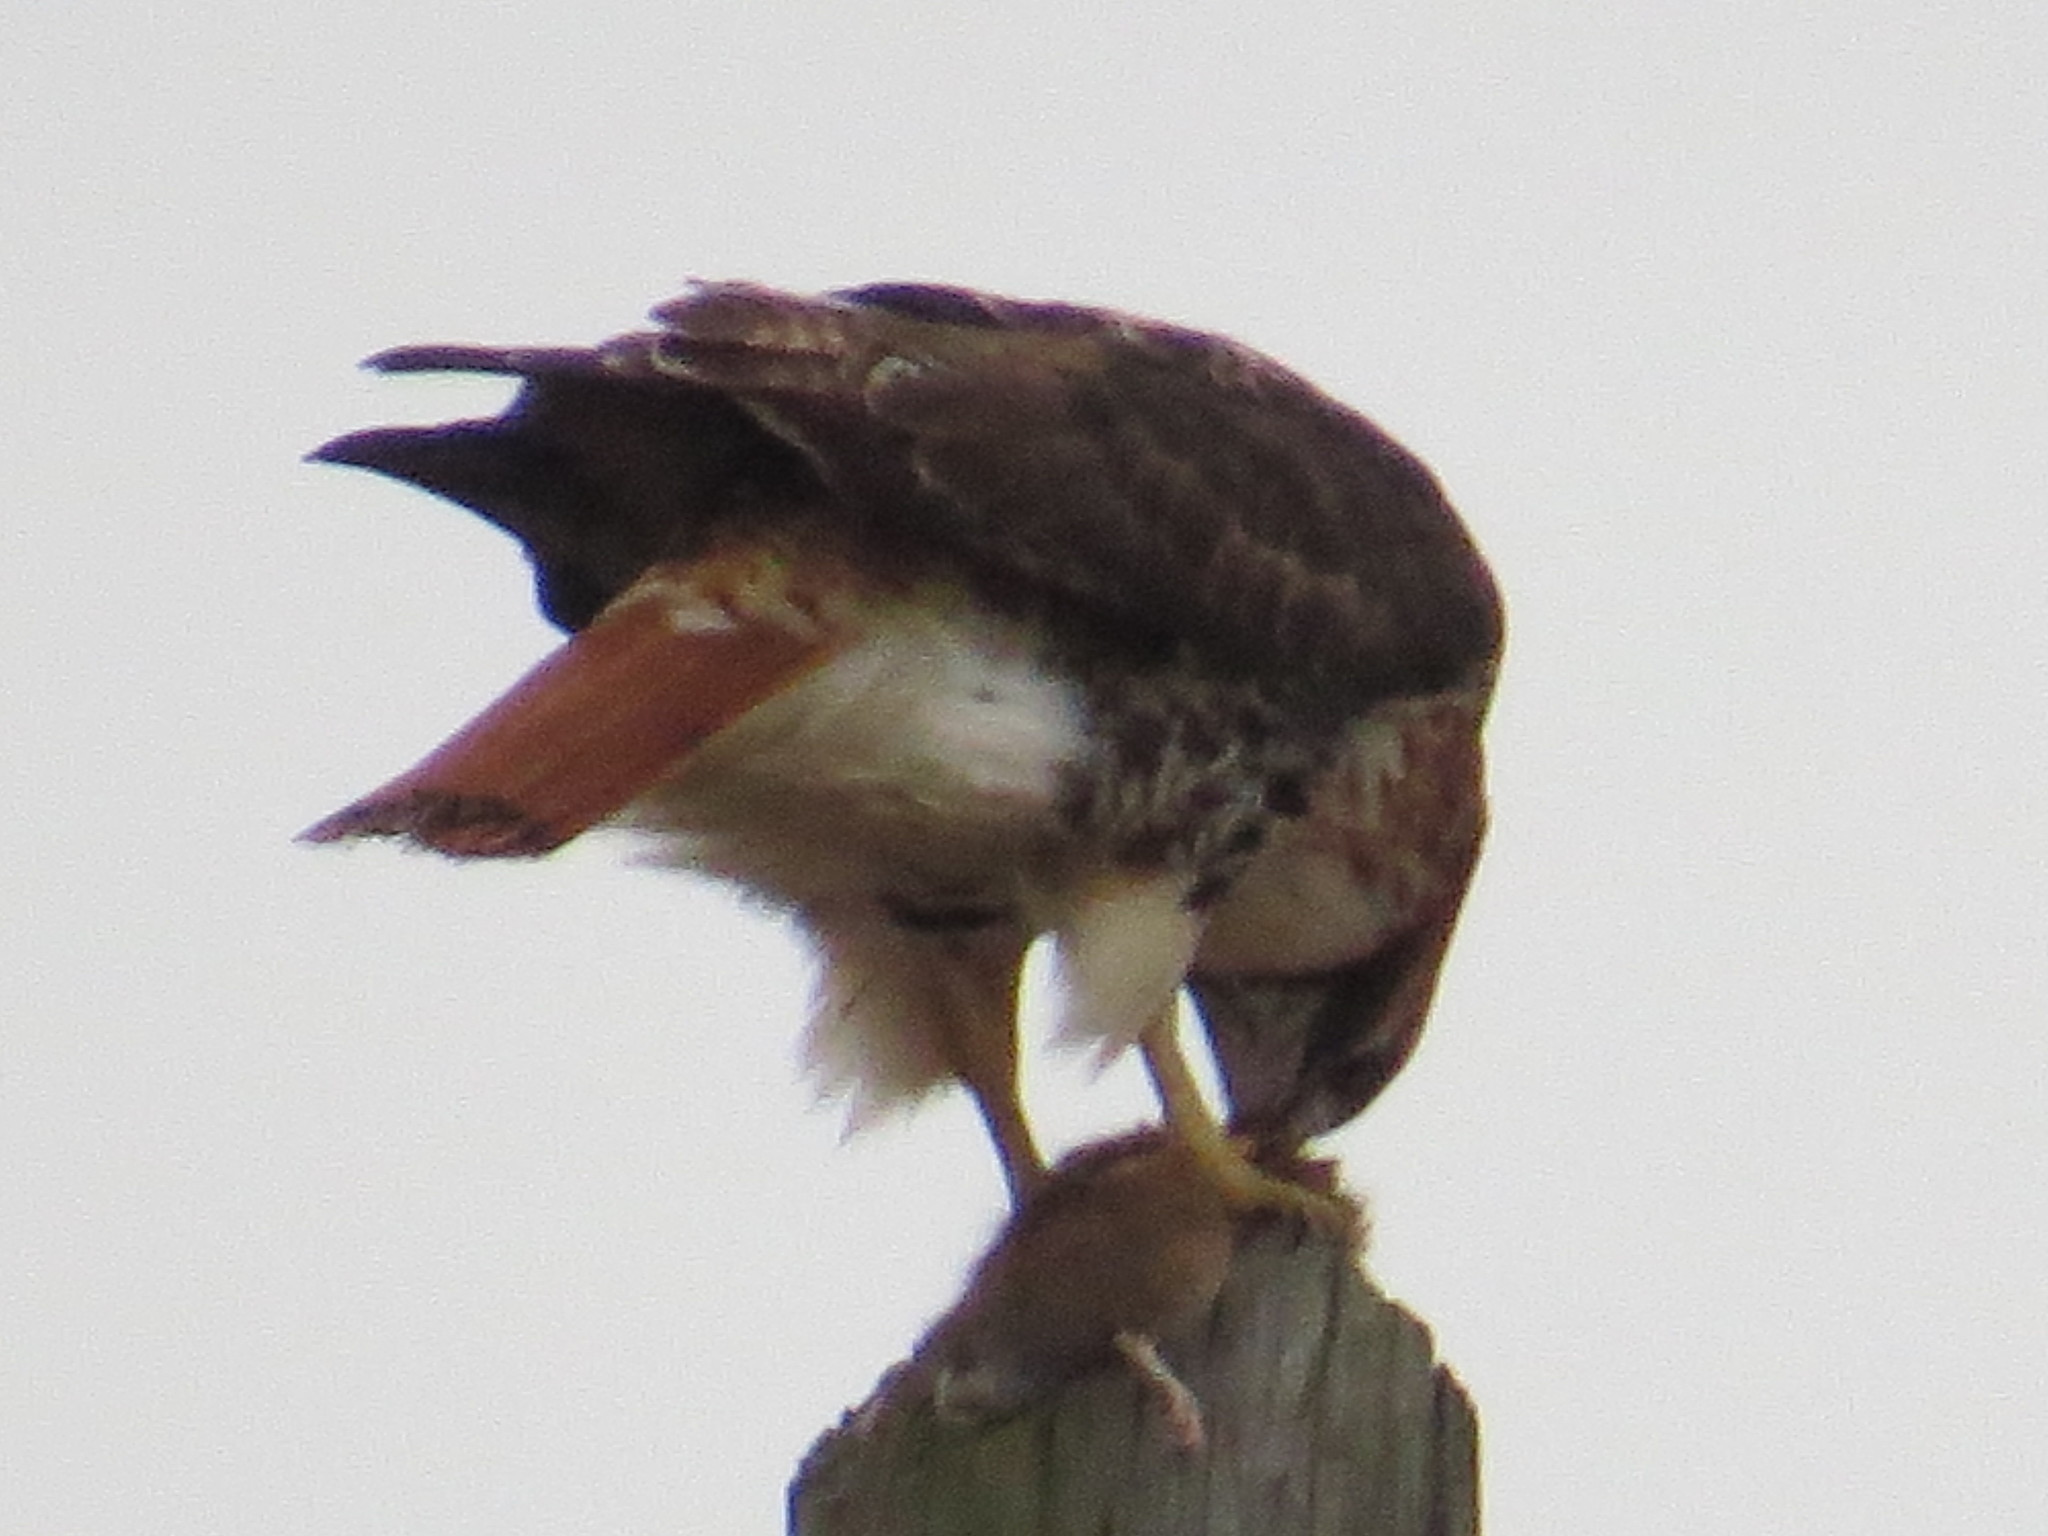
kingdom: Animalia
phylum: Chordata
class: Aves
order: Accipitriformes
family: Accipitridae
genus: Buteo
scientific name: Buteo jamaicensis
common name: Red-tailed hawk
